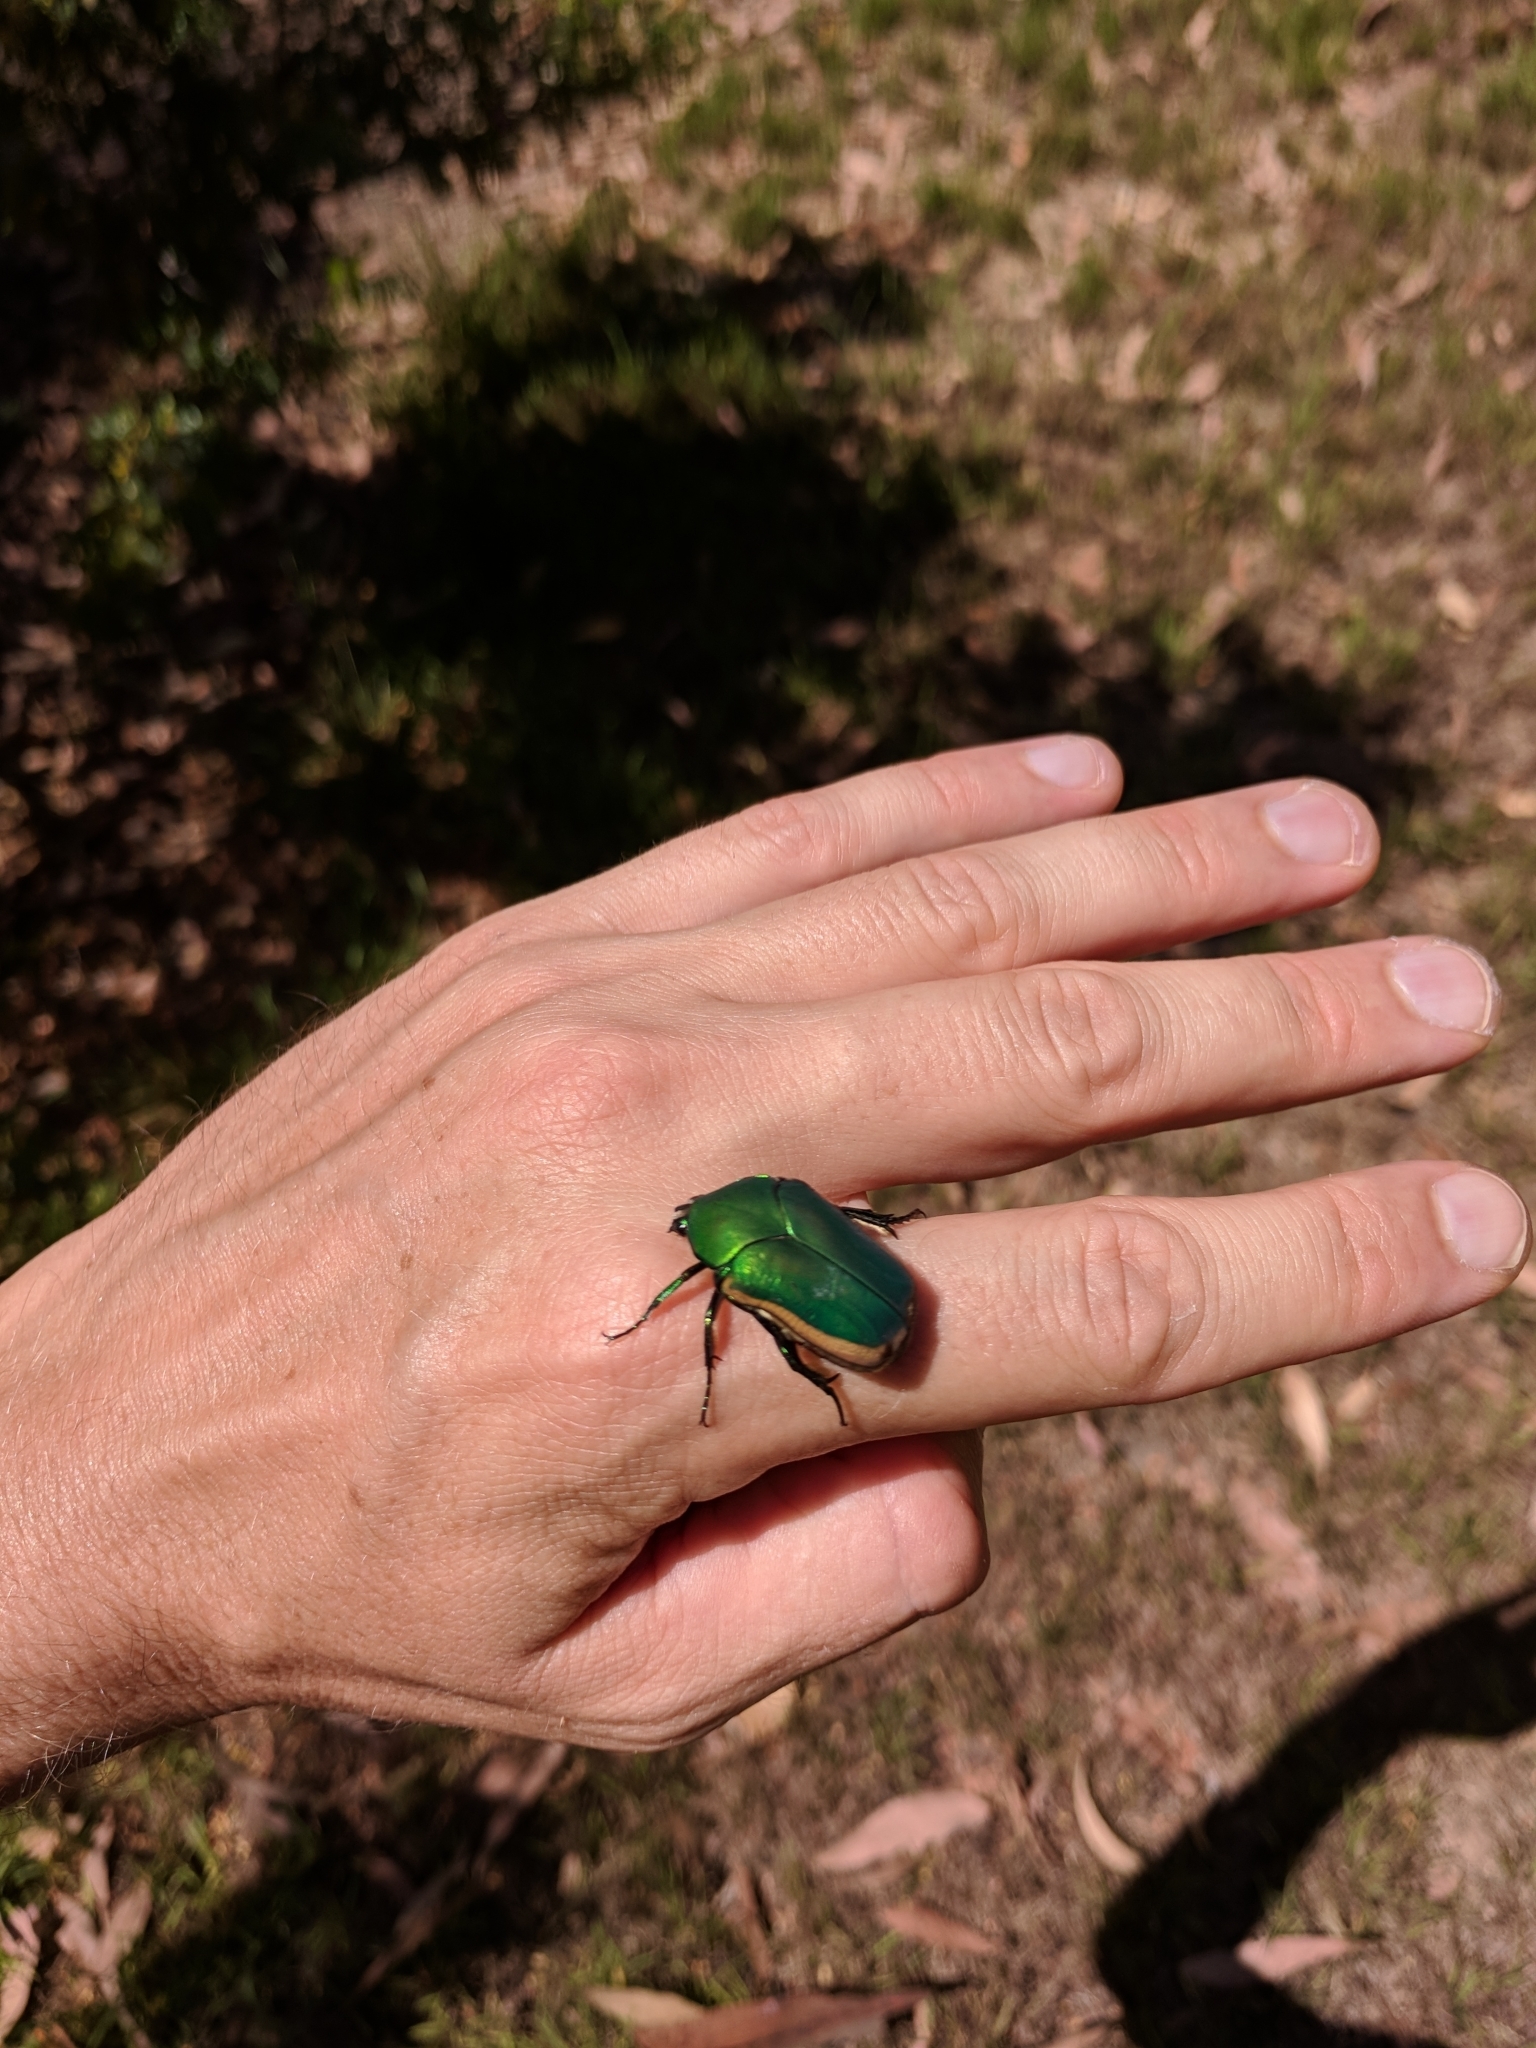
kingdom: Animalia
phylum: Arthropoda
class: Insecta
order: Coleoptera
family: Scarabaeidae
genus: Cotinis
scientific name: Cotinis mutabilis
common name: Figeater beetle
